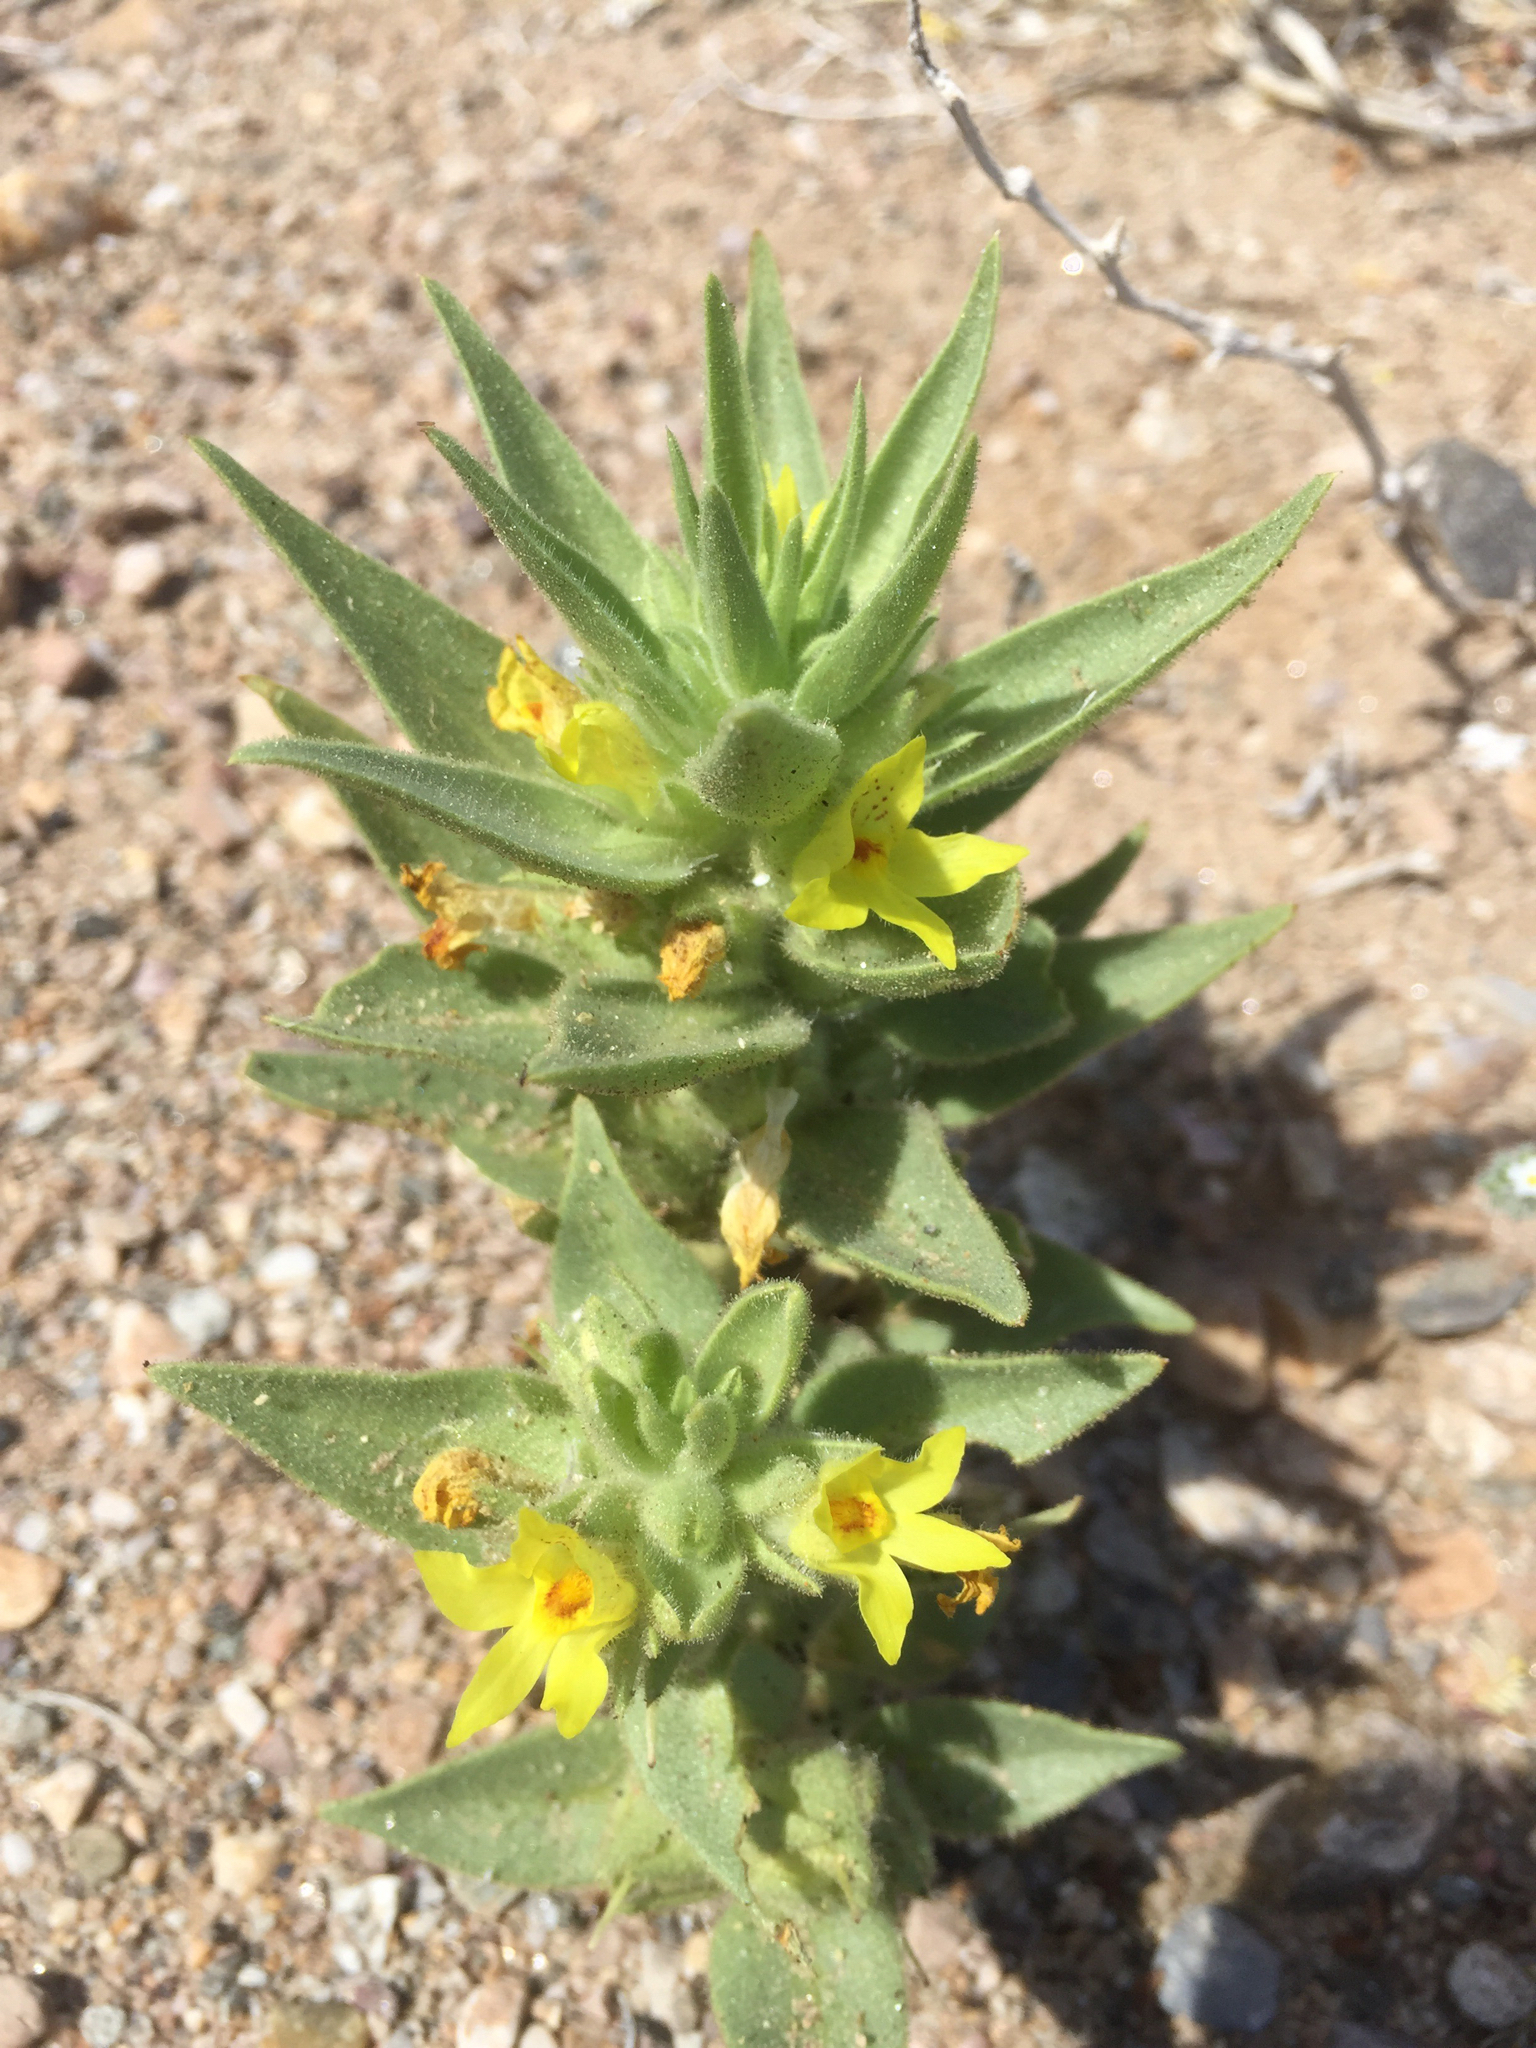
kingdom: Plantae
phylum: Tracheophyta
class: Magnoliopsida
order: Lamiales
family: Plantaginaceae
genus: Mohavea
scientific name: Mohavea breviflora
